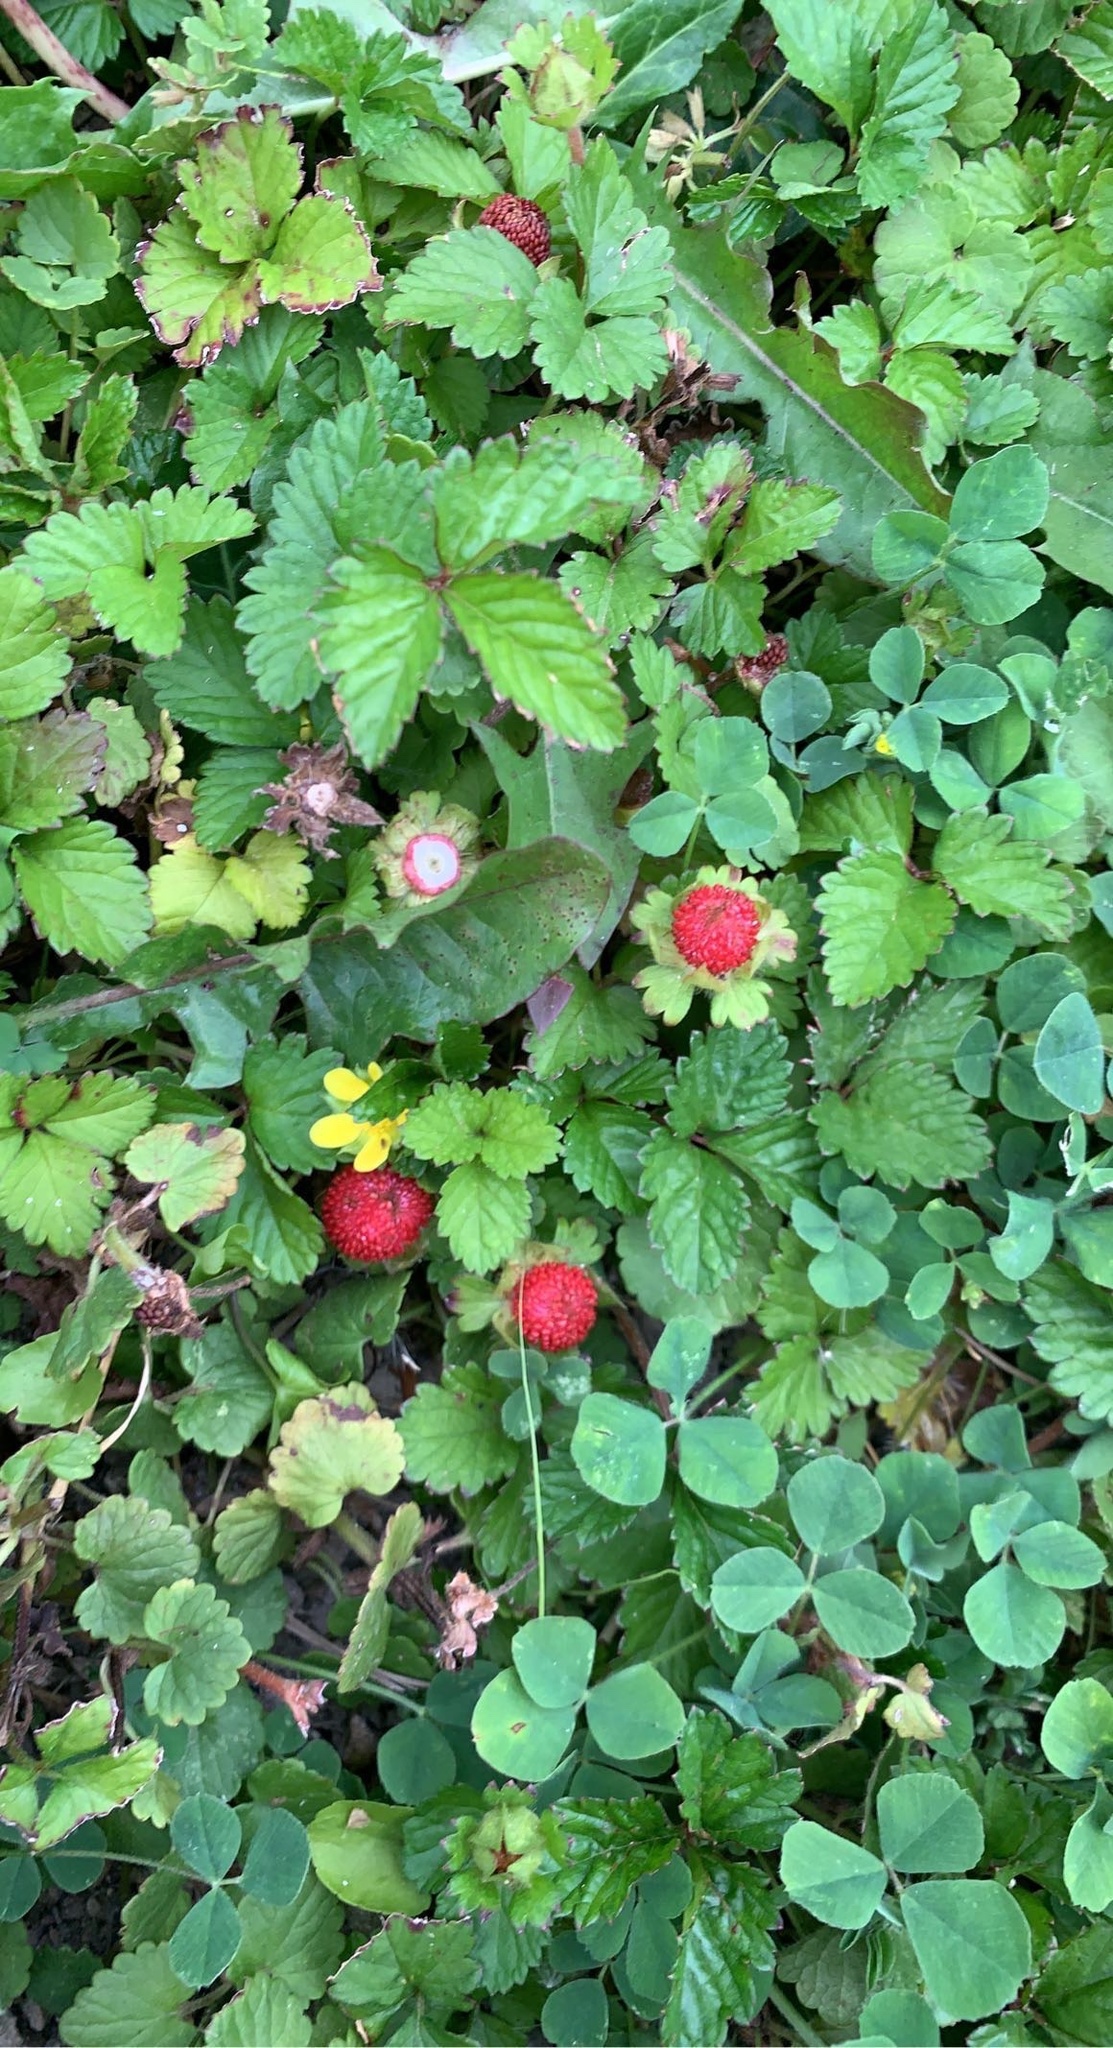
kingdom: Plantae
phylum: Tracheophyta
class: Magnoliopsida
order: Rosales
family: Rosaceae
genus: Potentilla
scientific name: Potentilla indica
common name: Yellow-flowered strawberry
